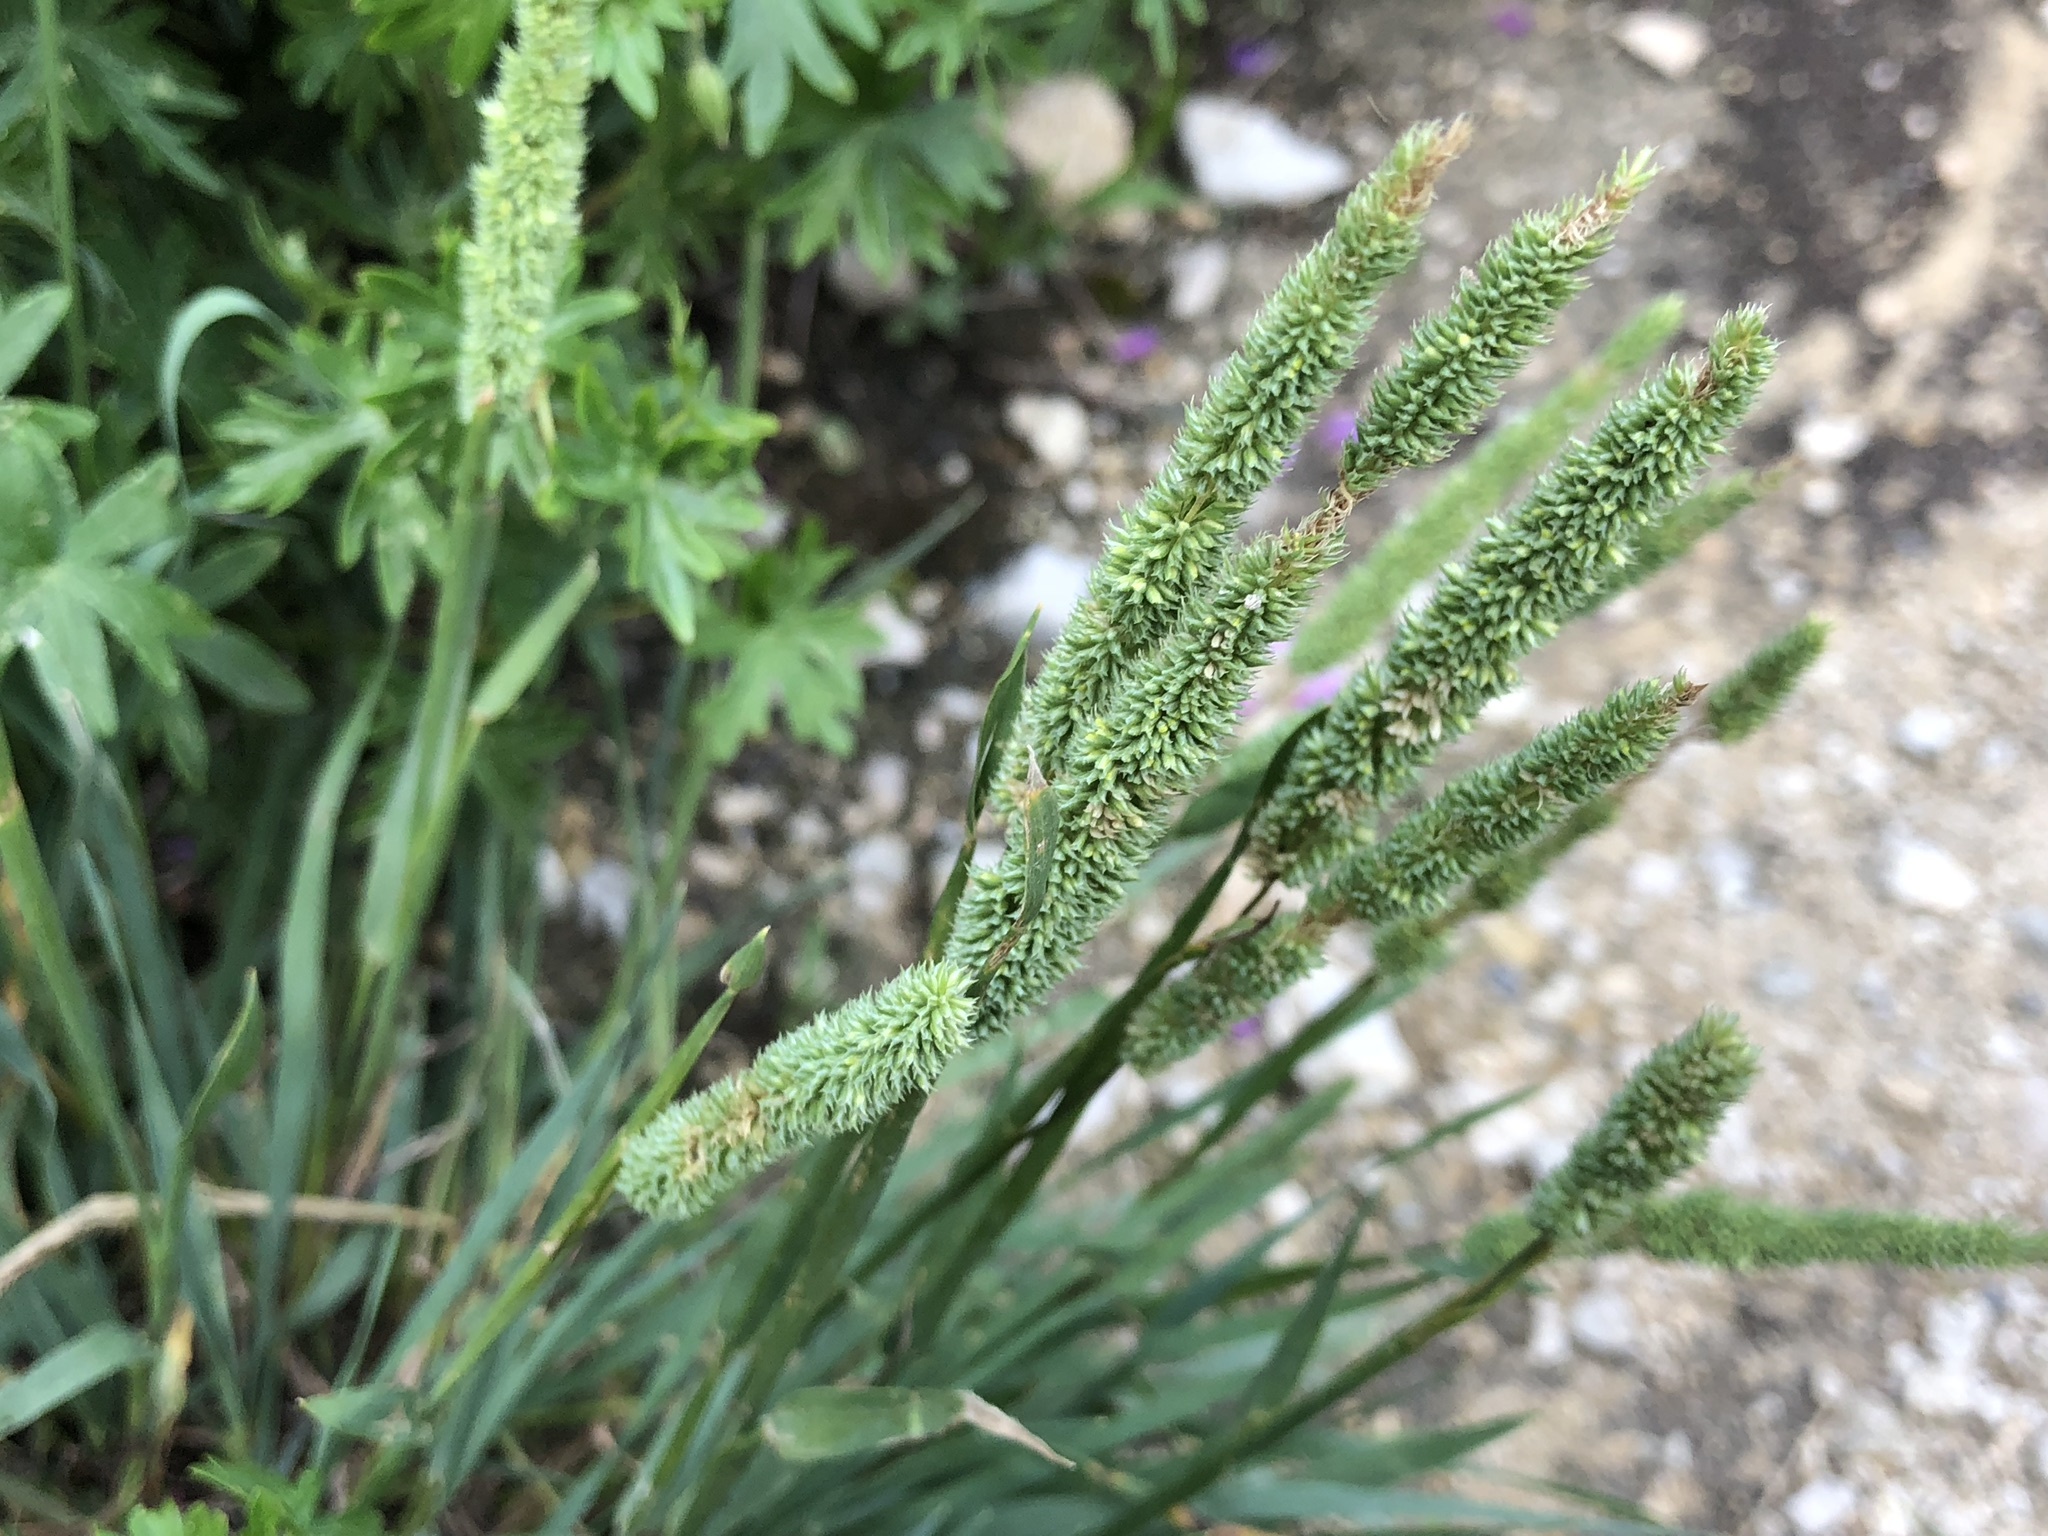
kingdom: Plantae
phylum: Tracheophyta
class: Liliopsida
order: Poales
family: Poaceae
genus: Phleum
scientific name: Phleum pratense
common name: Timothy grass
